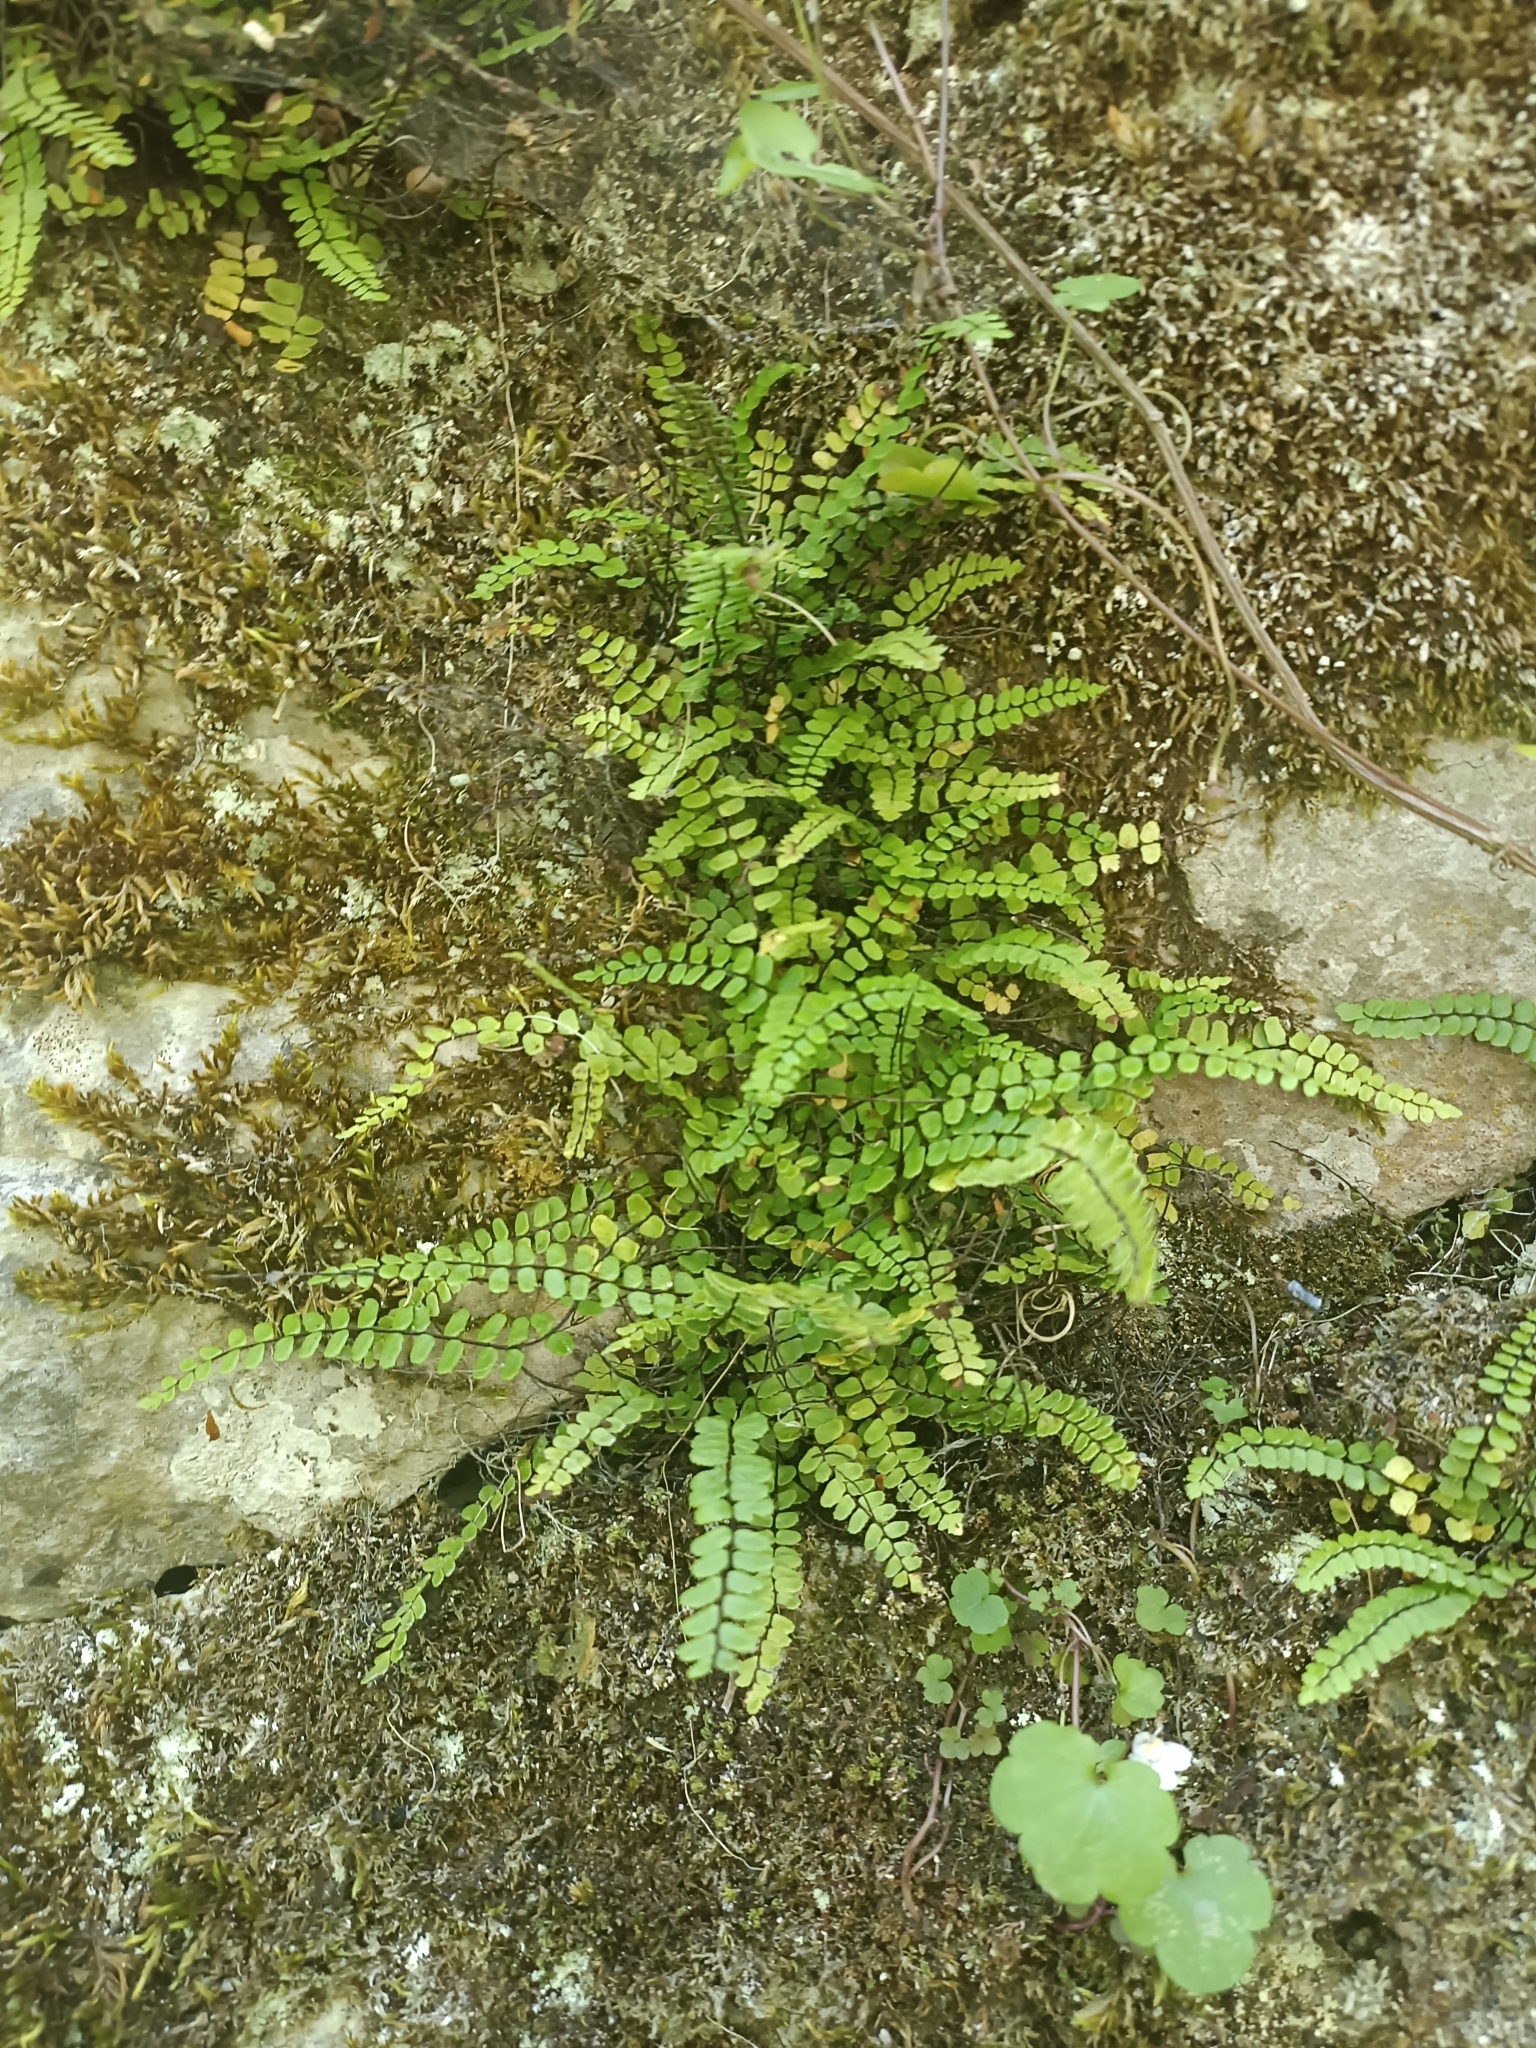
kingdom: Plantae
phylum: Tracheophyta
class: Polypodiopsida
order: Polypodiales
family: Aspleniaceae
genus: Asplenium
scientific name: Asplenium trichomanes
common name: Maidenhair spleenwort
